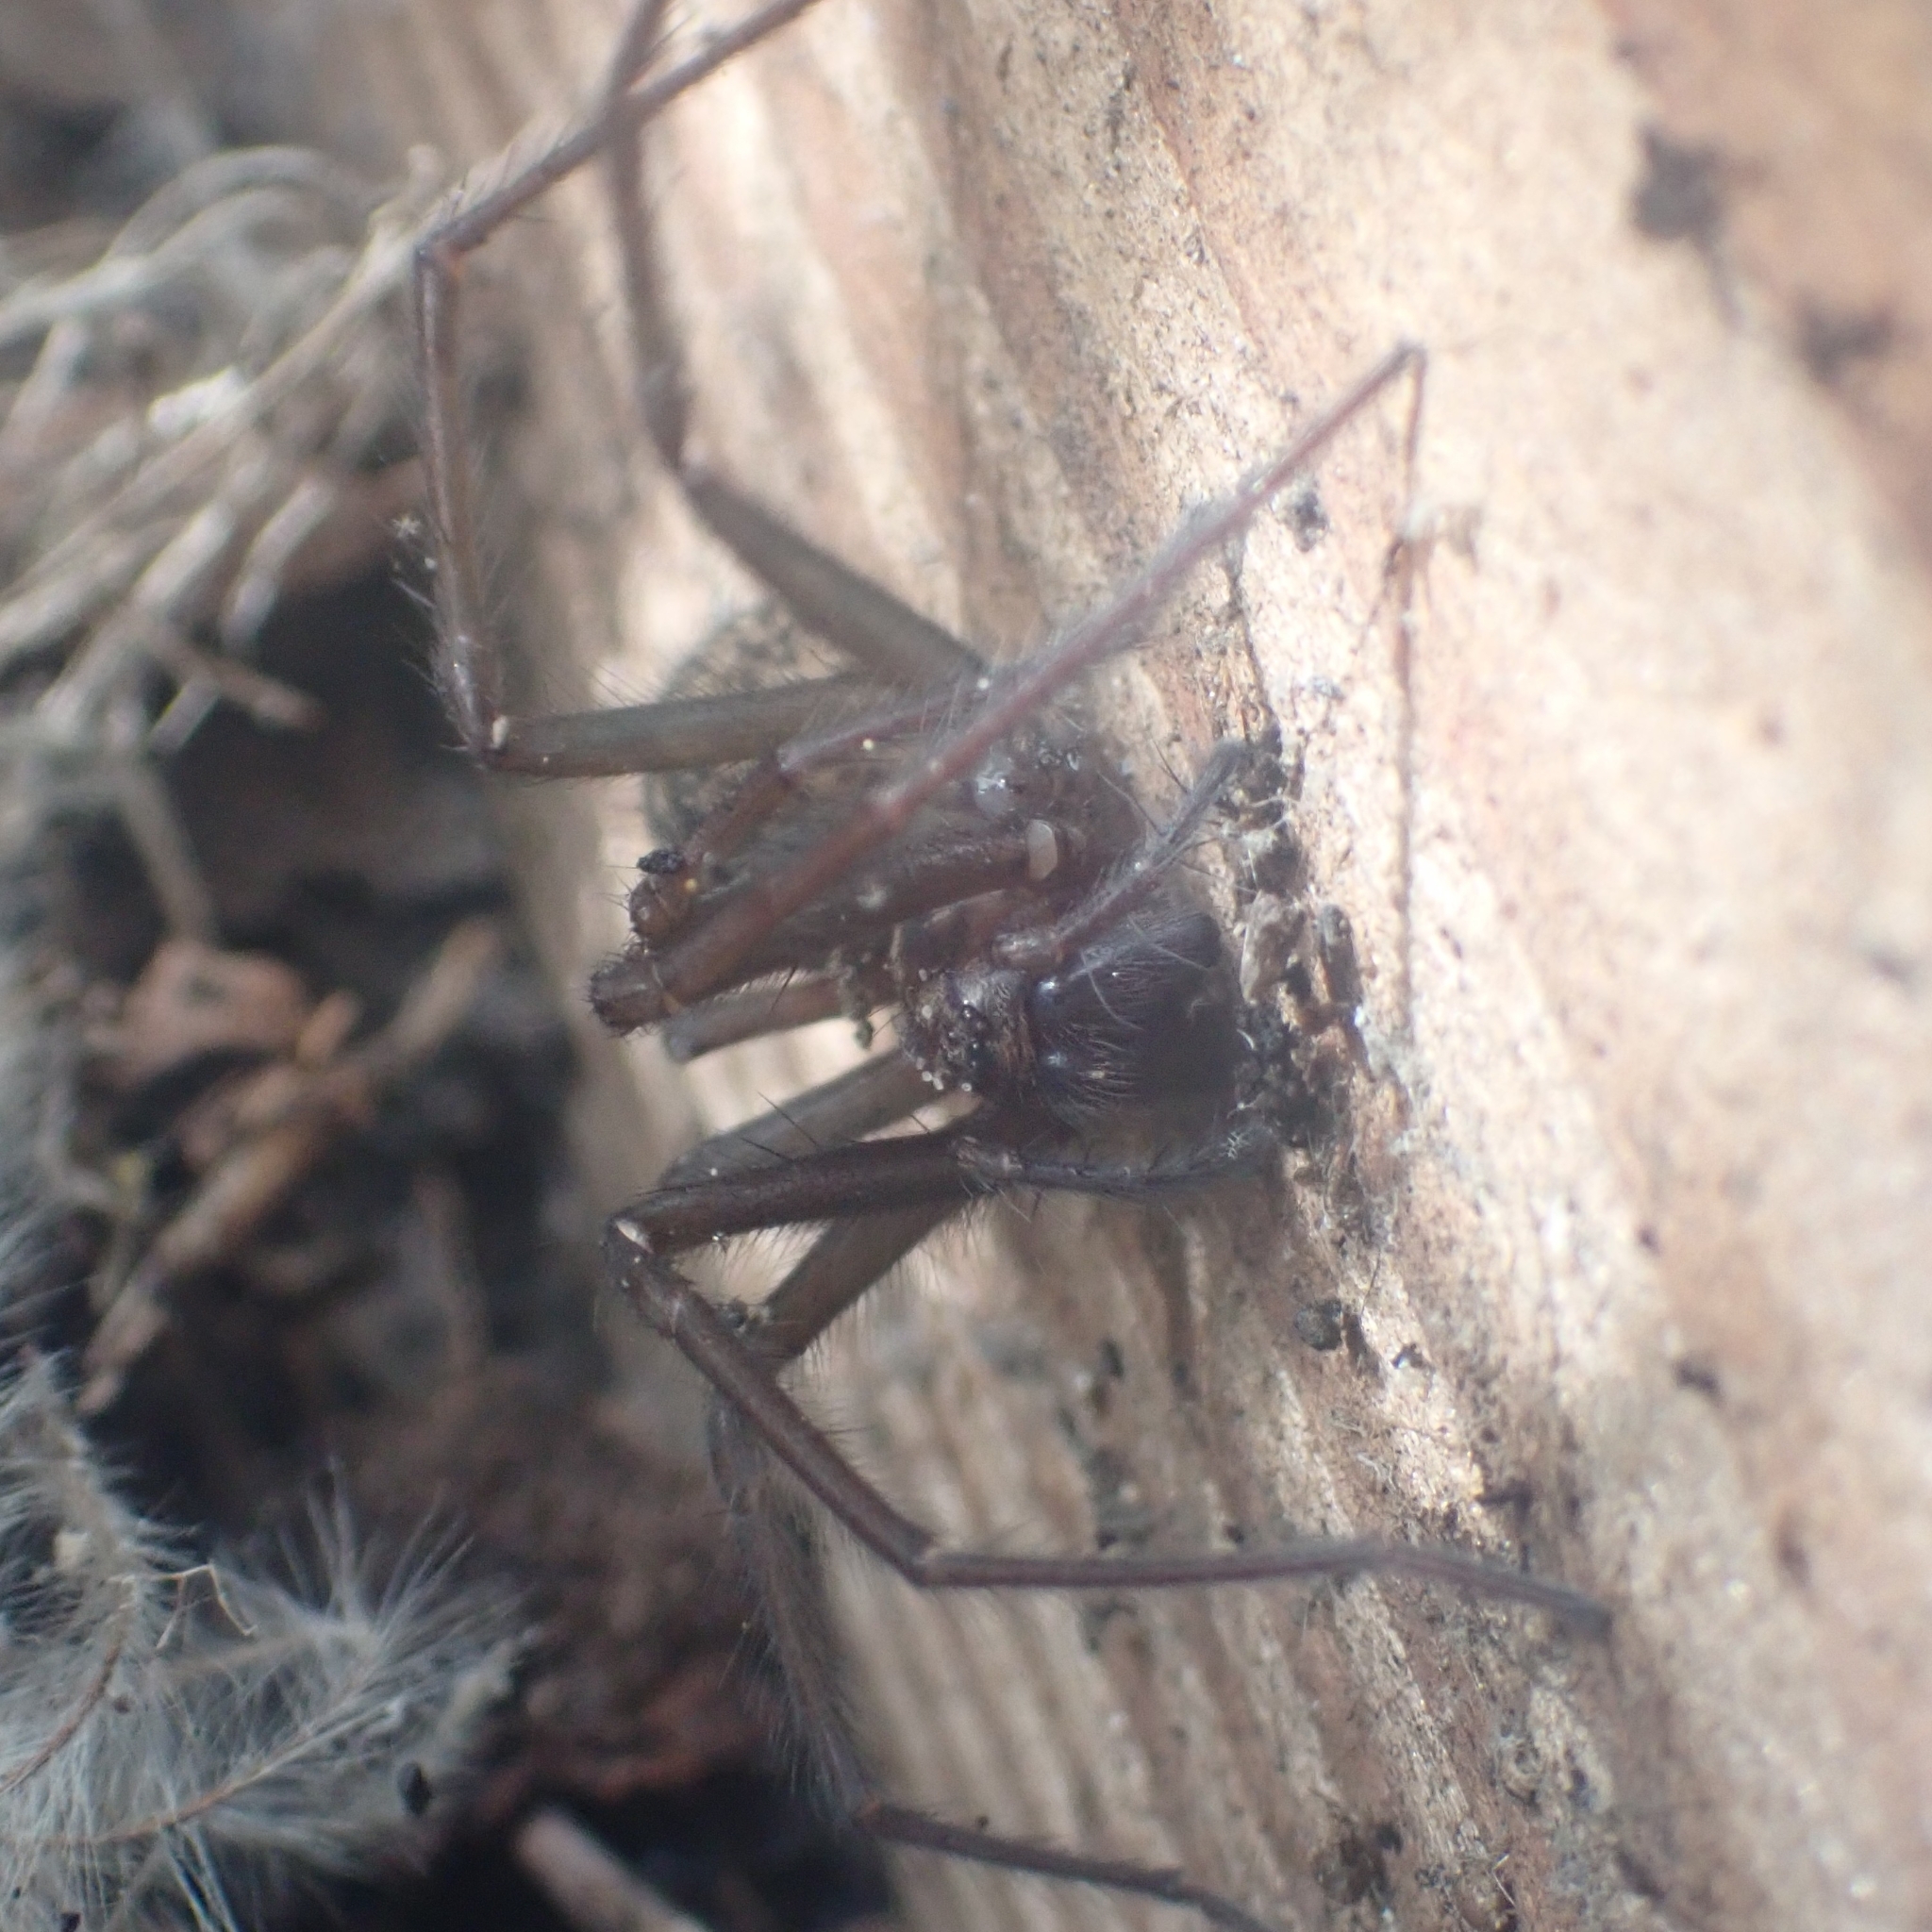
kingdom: Animalia
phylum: Arthropoda
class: Arachnida
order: Araneae
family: Agelenidae
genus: Eratigena
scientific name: Eratigena duellica
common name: Giant house spider
